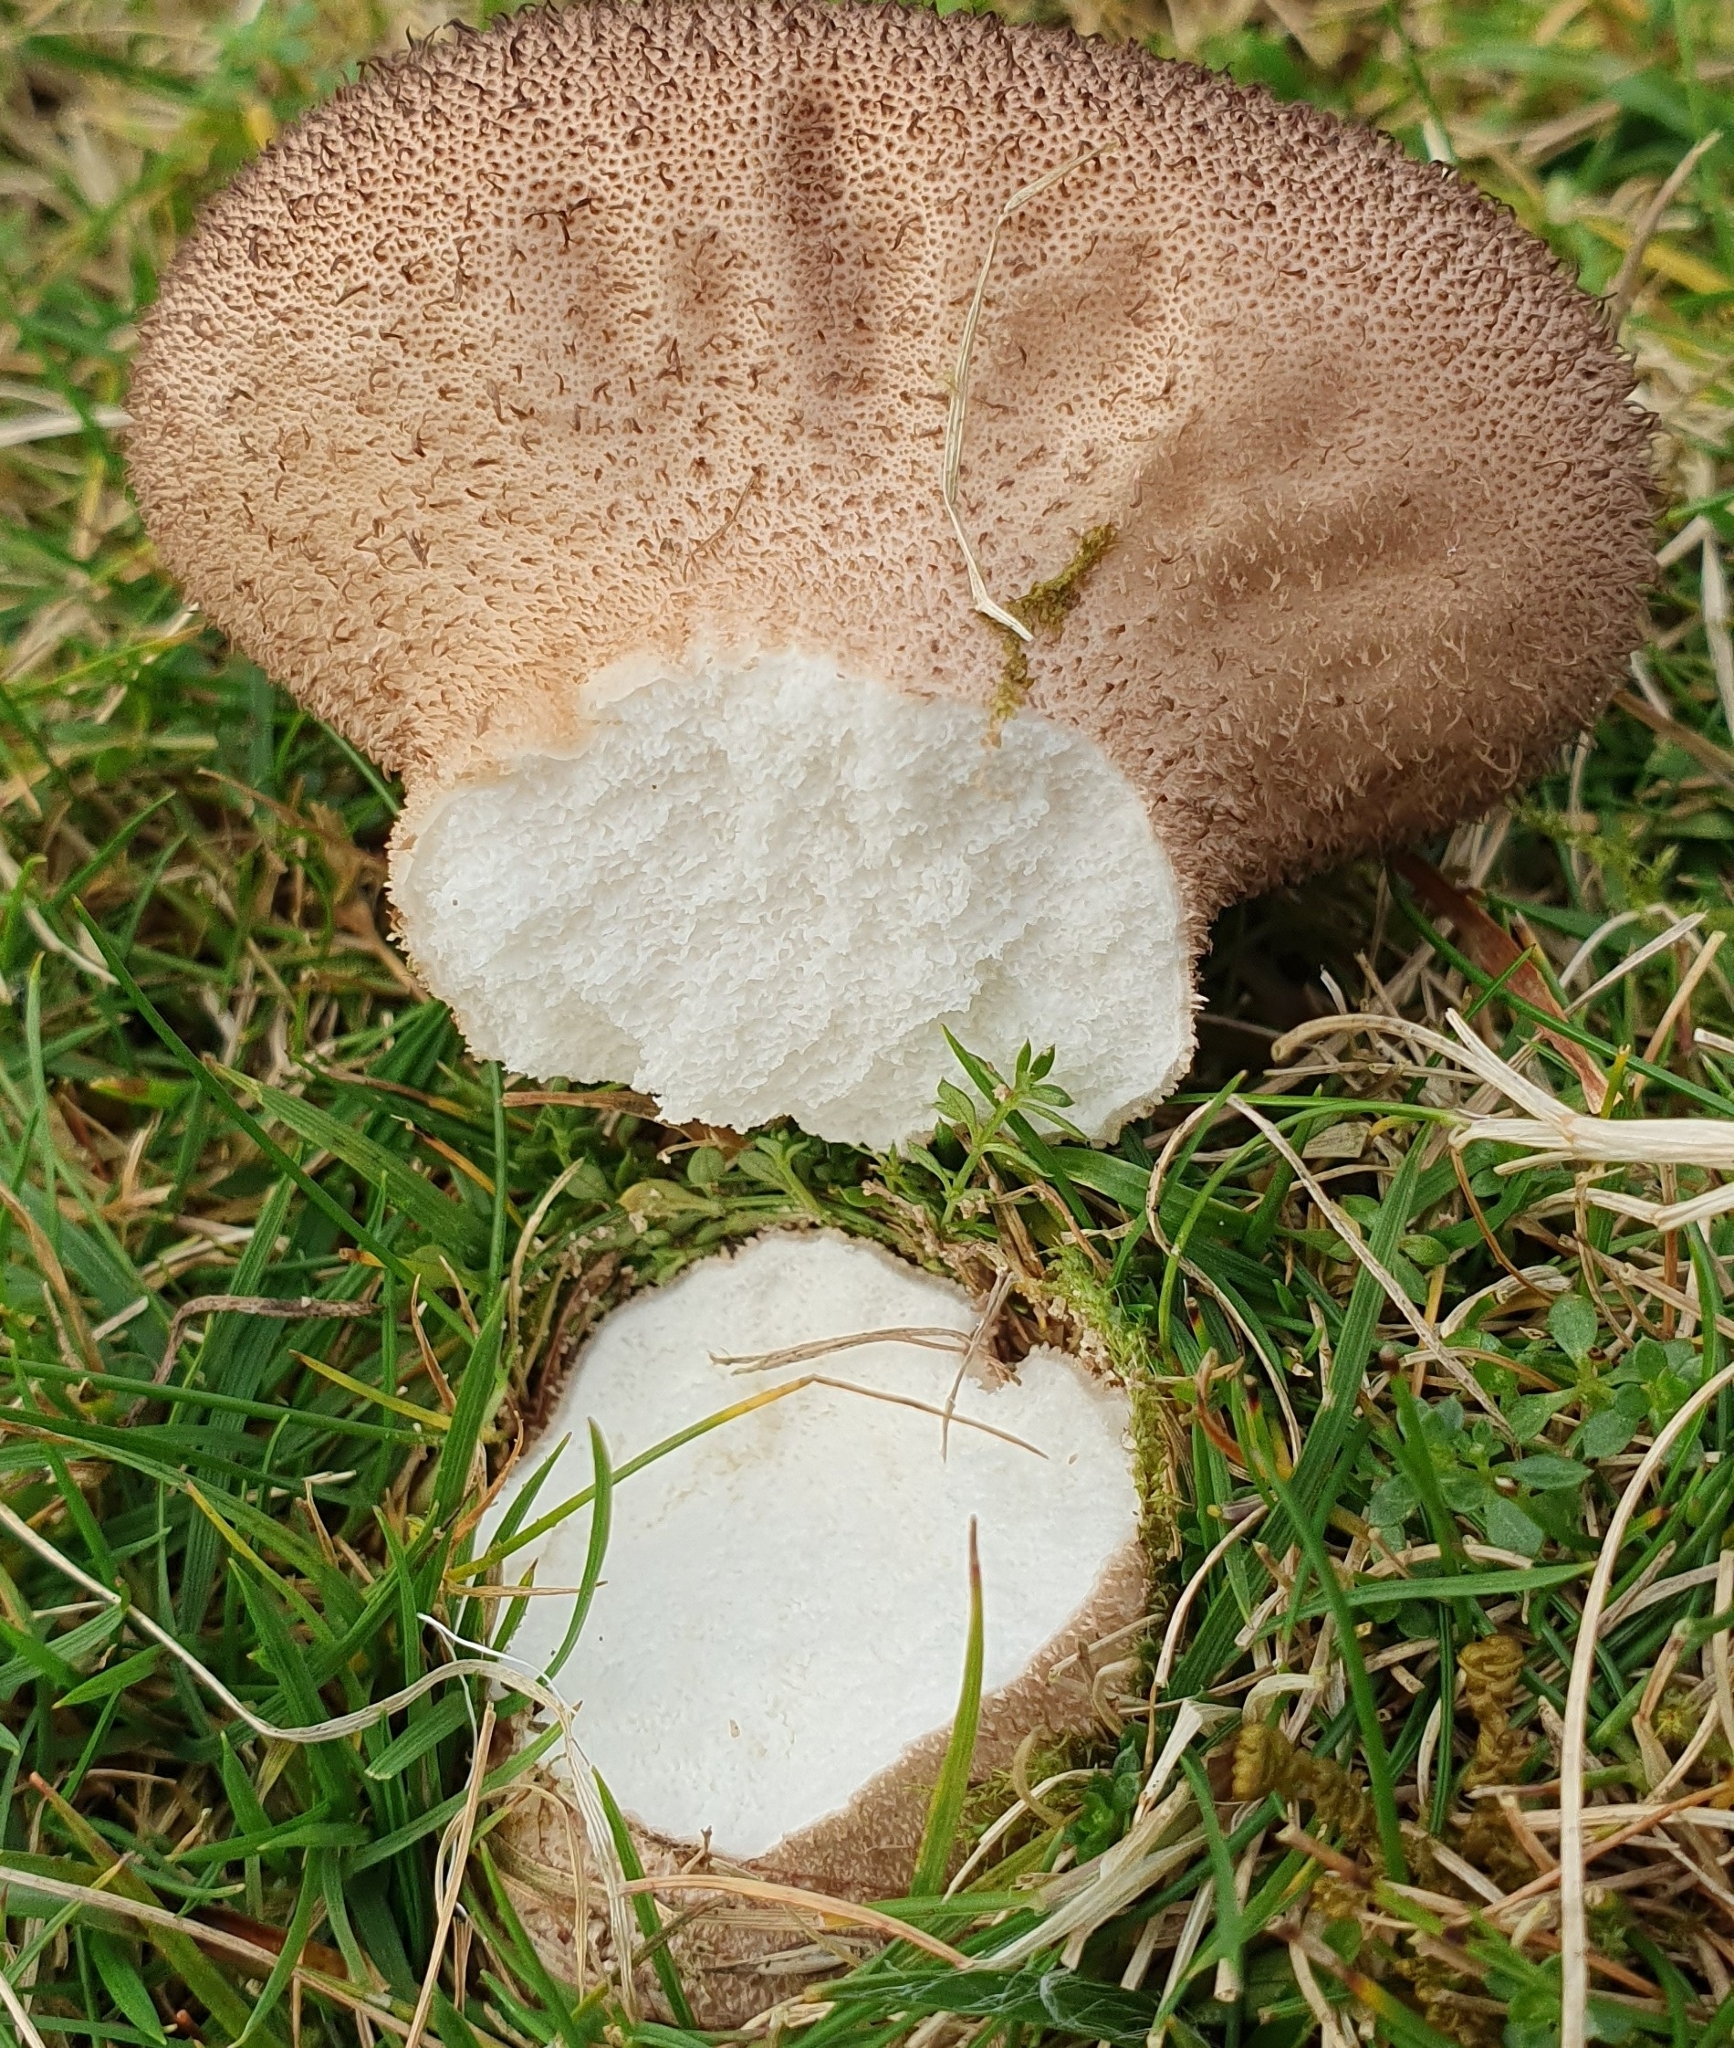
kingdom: Fungi
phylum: Basidiomycota
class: Agaricomycetes
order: Agaricales
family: Lycoperdaceae
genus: Lycoperdon
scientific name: Lycoperdon nigrescens
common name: Blackish puffball
